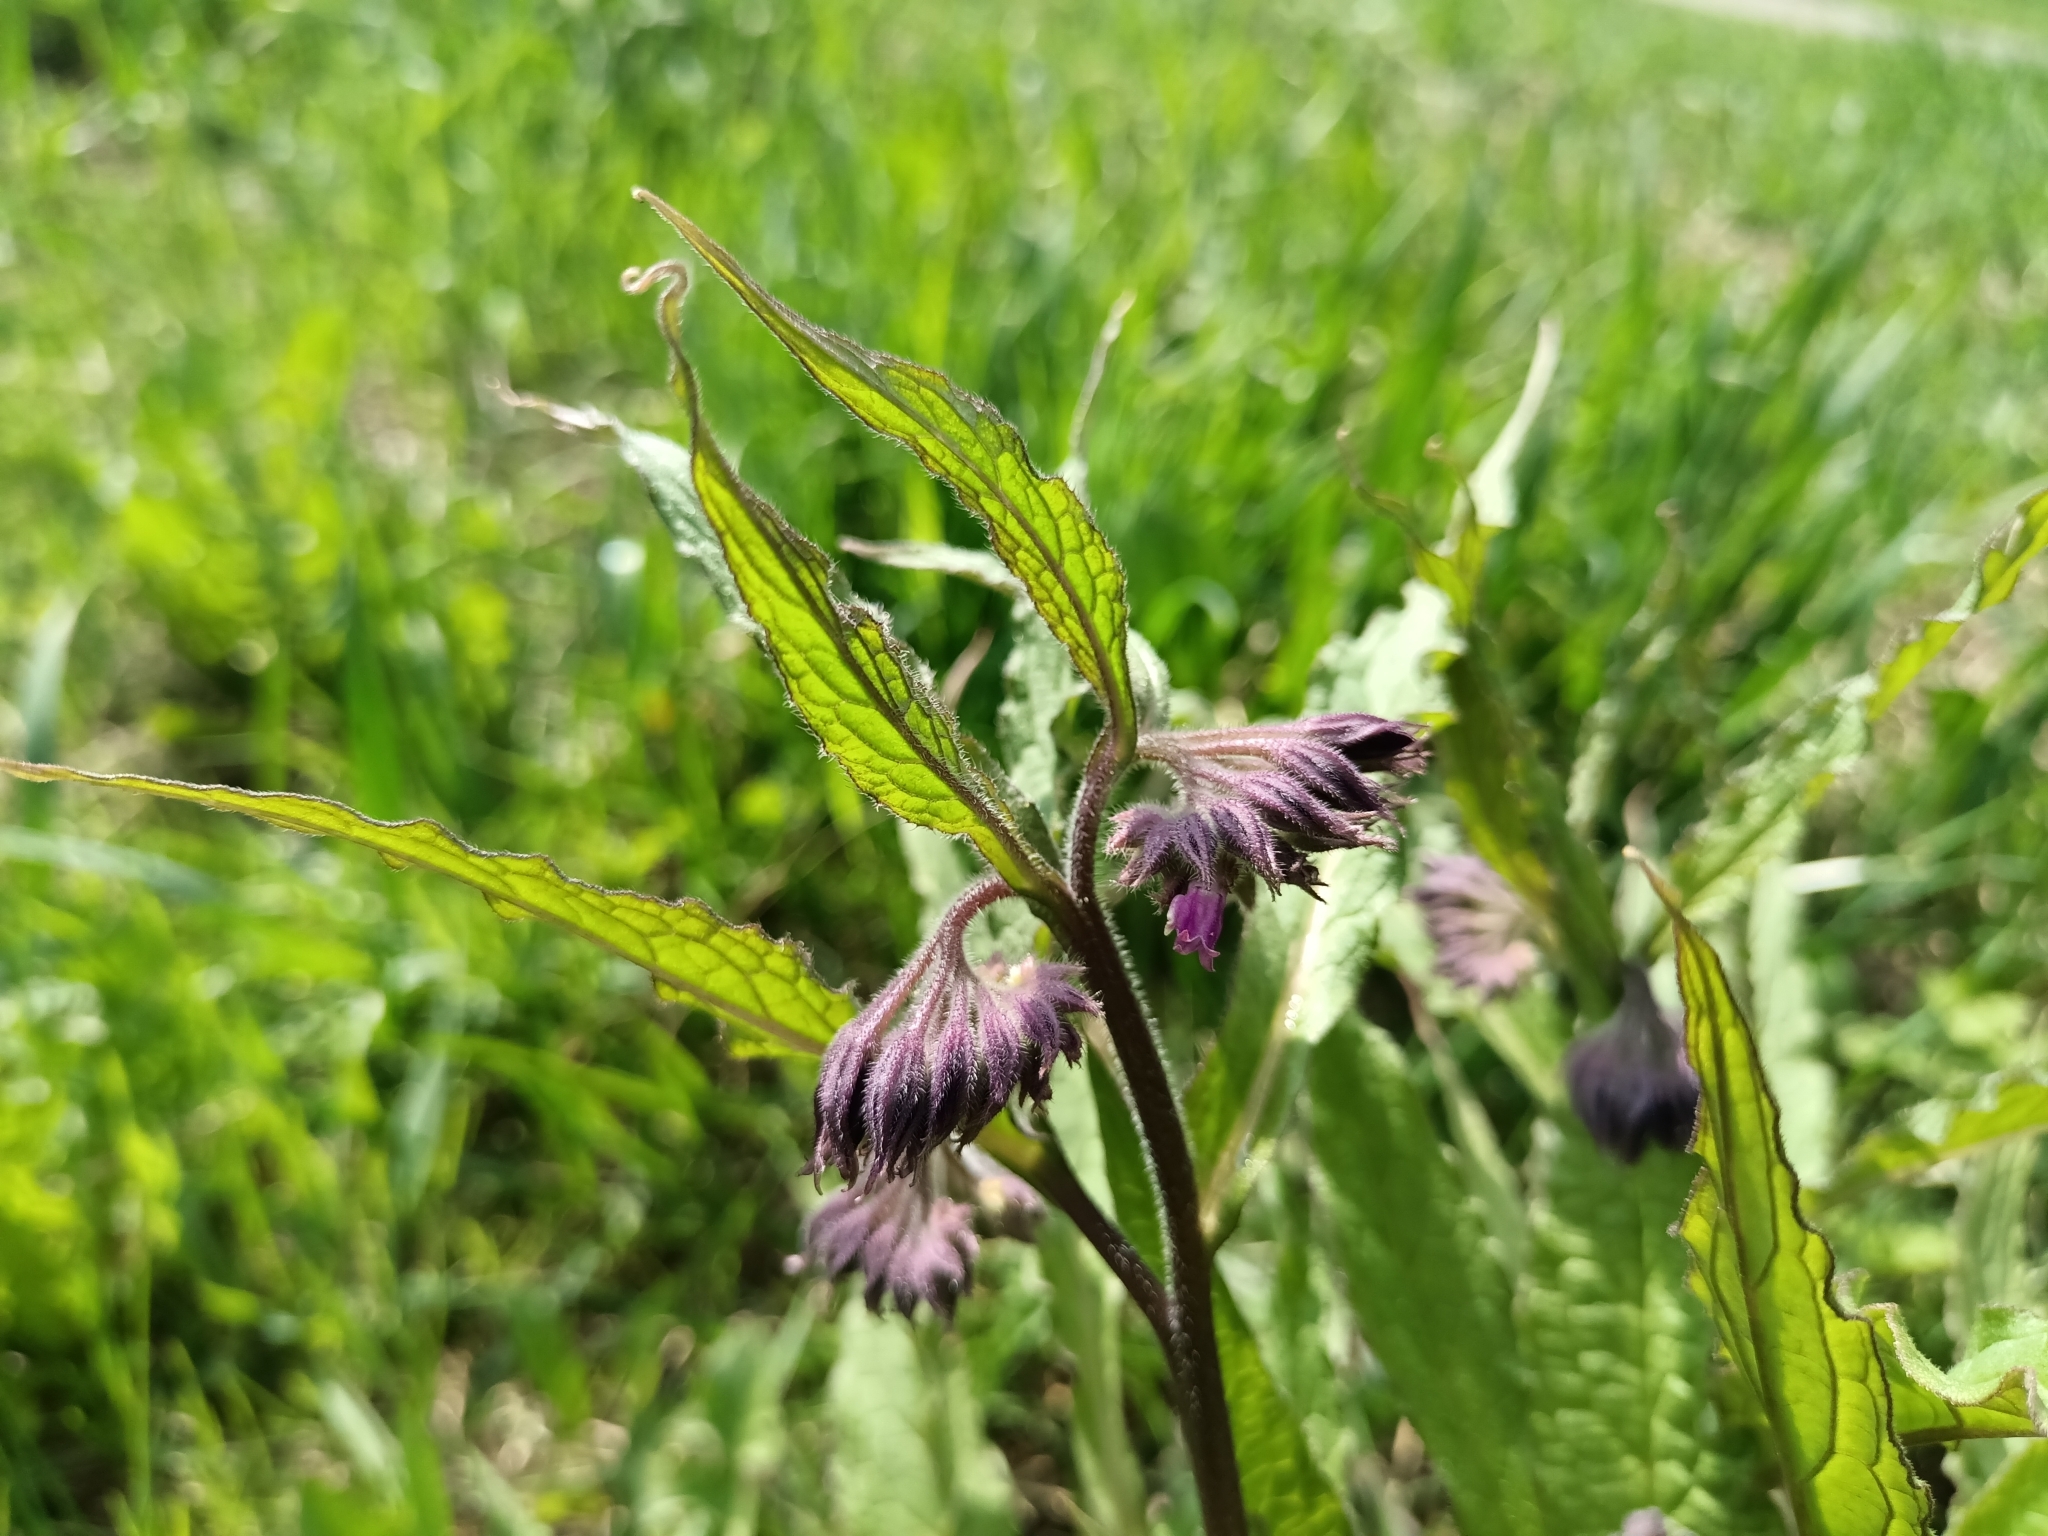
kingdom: Plantae
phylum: Tracheophyta
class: Magnoliopsida
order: Boraginales
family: Boraginaceae
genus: Symphytum
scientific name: Symphytum officinale
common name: Common comfrey
